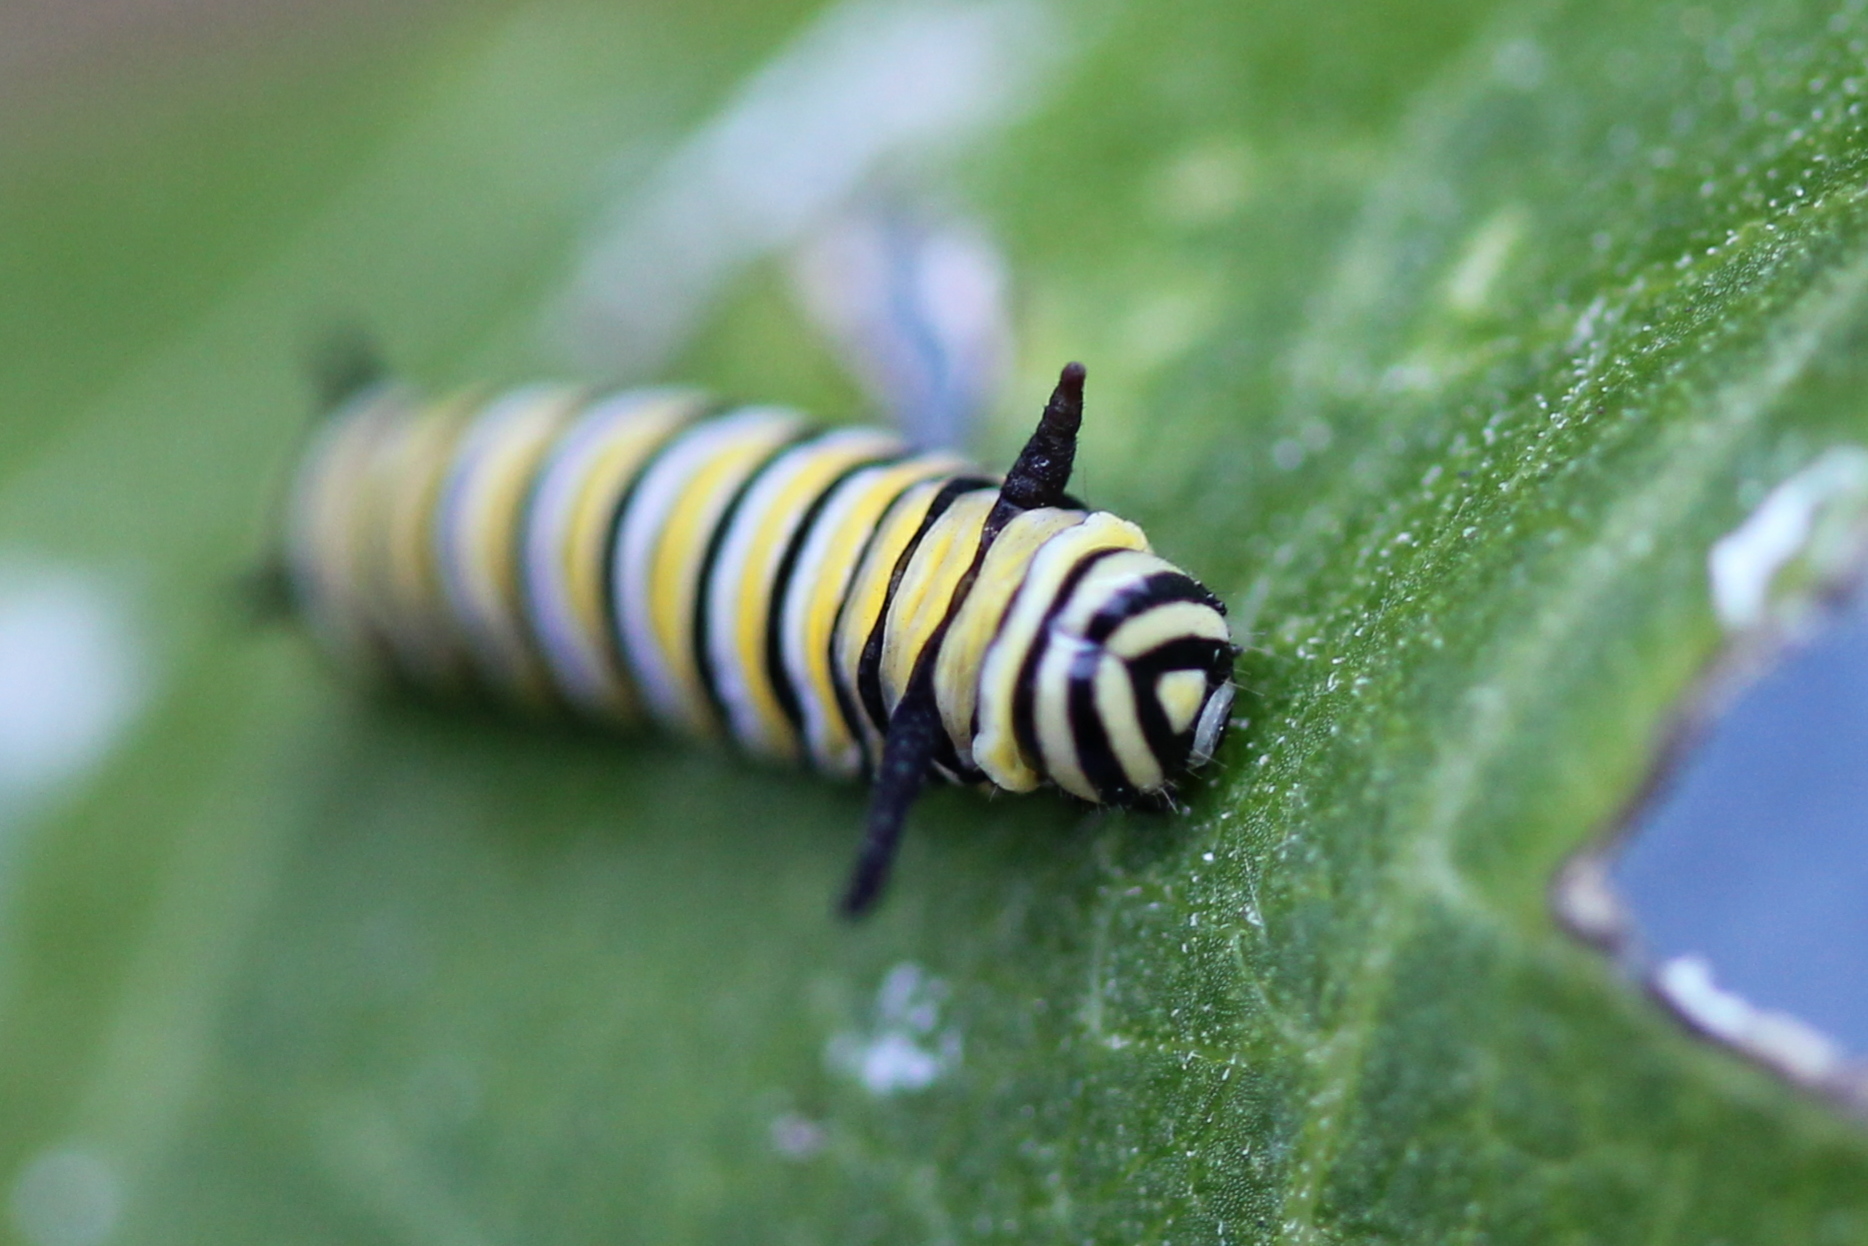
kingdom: Animalia
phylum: Arthropoda
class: Insecta
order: Lepidoptera
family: Nymphalidae
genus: Danaus
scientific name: Danaus plexippus
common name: Monarch
